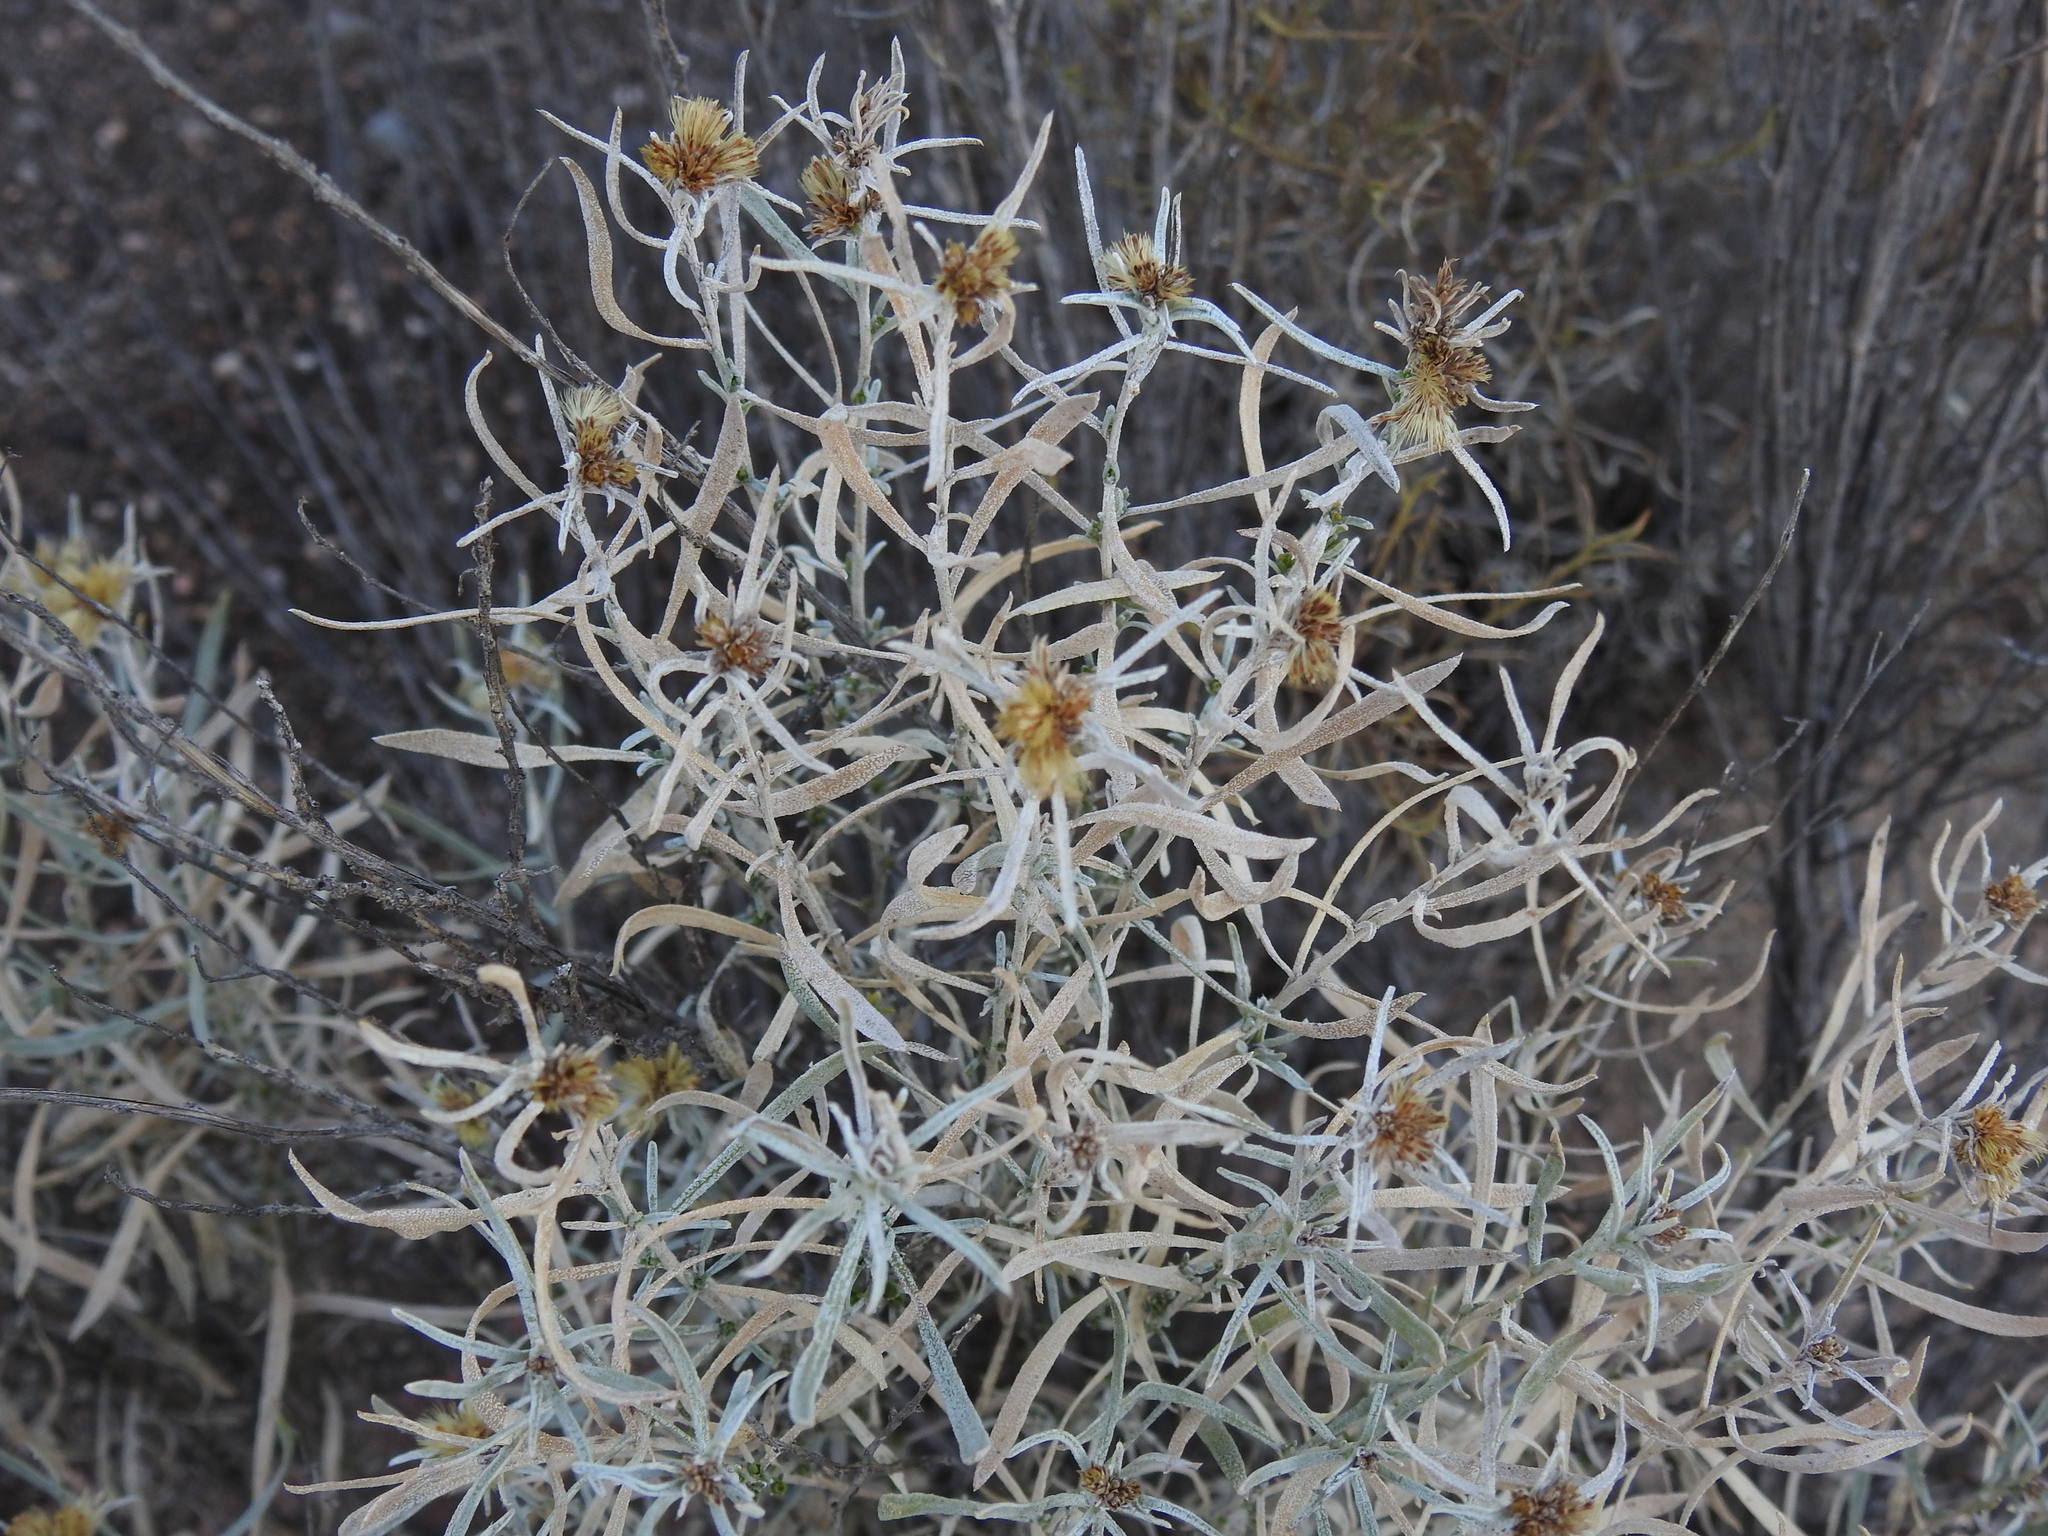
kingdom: Plantae
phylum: Tracheophyta
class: Magnoliopsida
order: Asterales
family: Asteraceae
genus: Isocoma
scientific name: Isocoma acradenia
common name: Alkali jimmyweed
